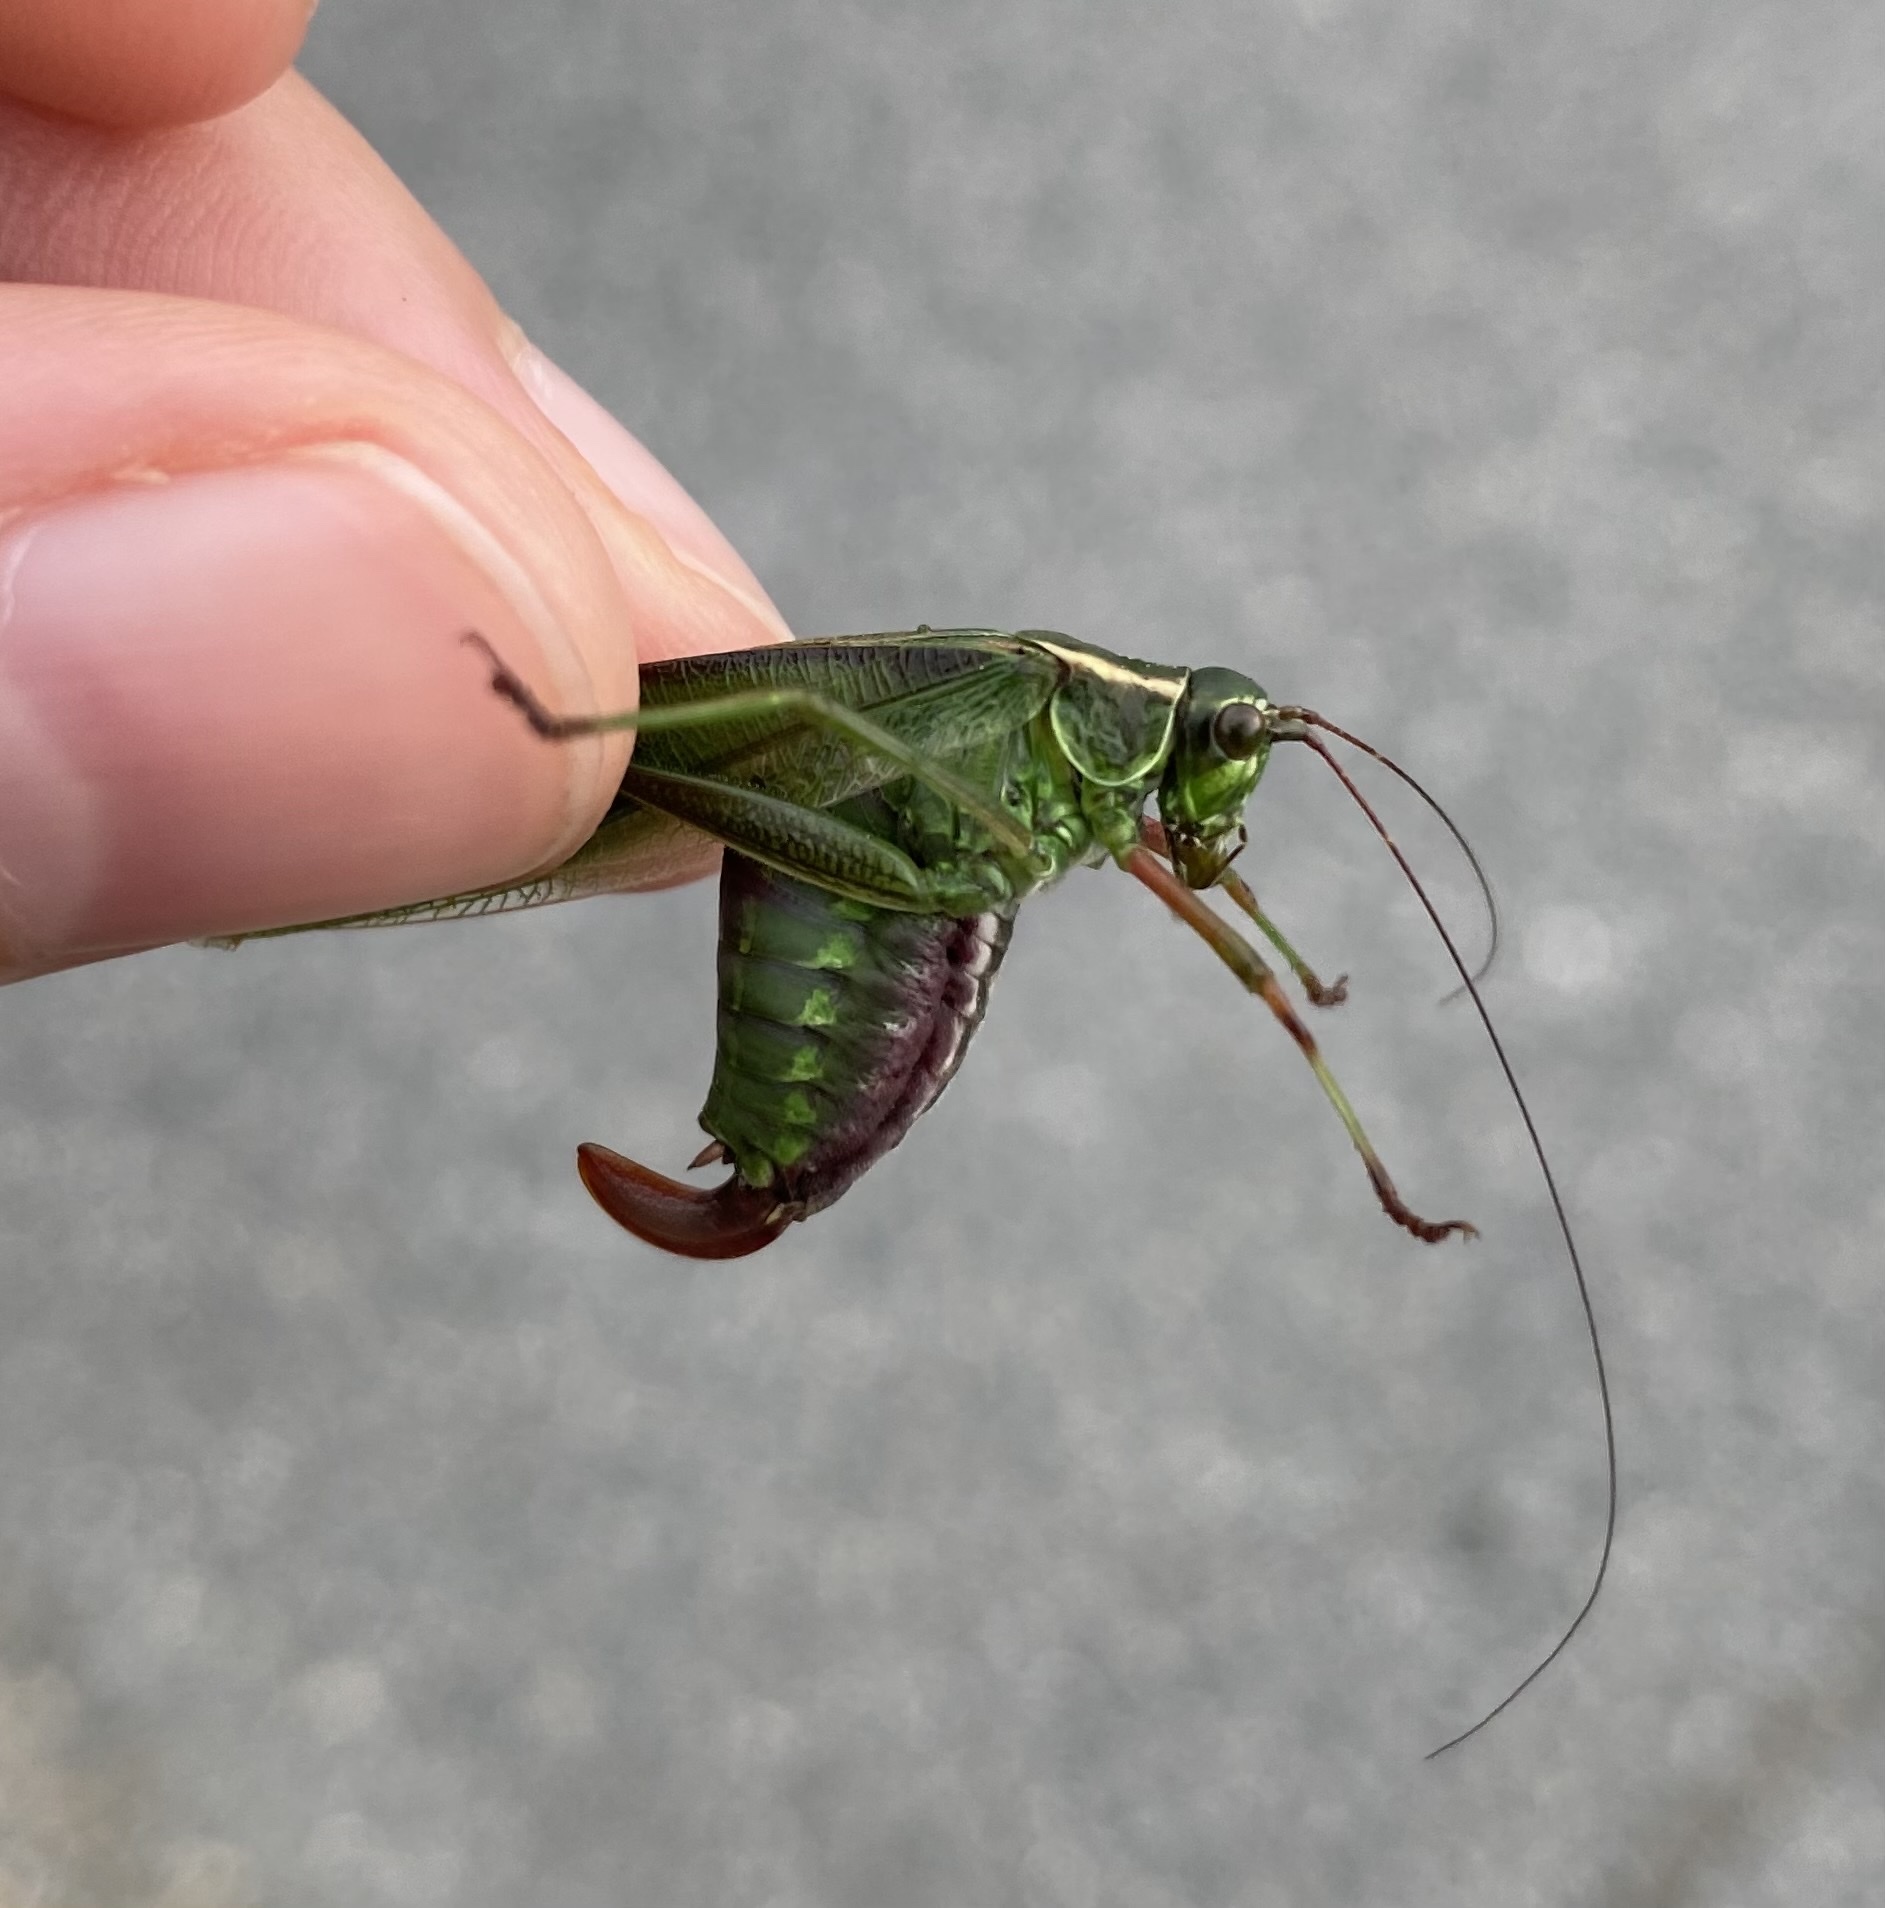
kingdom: Animalia
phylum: Arthropoda
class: Insecta
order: Orthoptera
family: Tettigoniidae
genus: Scudderia
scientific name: Scudderia fasciata
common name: Treetop bush katydid
